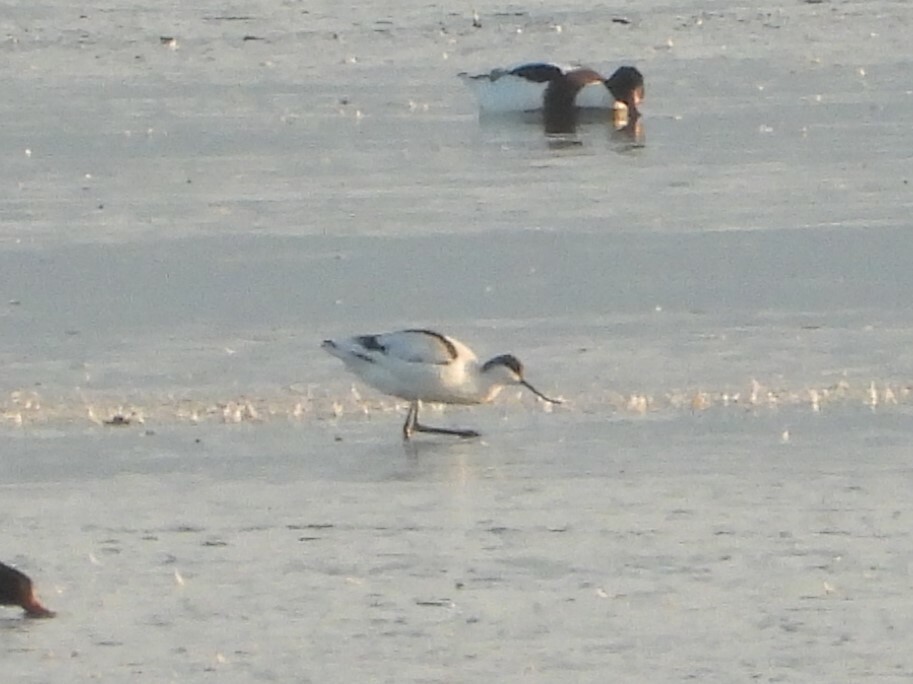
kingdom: Animalia
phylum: Chordata
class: Aves
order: Charadriiformes
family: Recurvirostridae
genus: Recurvirostra
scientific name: Recurvirostra avosetta
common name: Pied avocet
